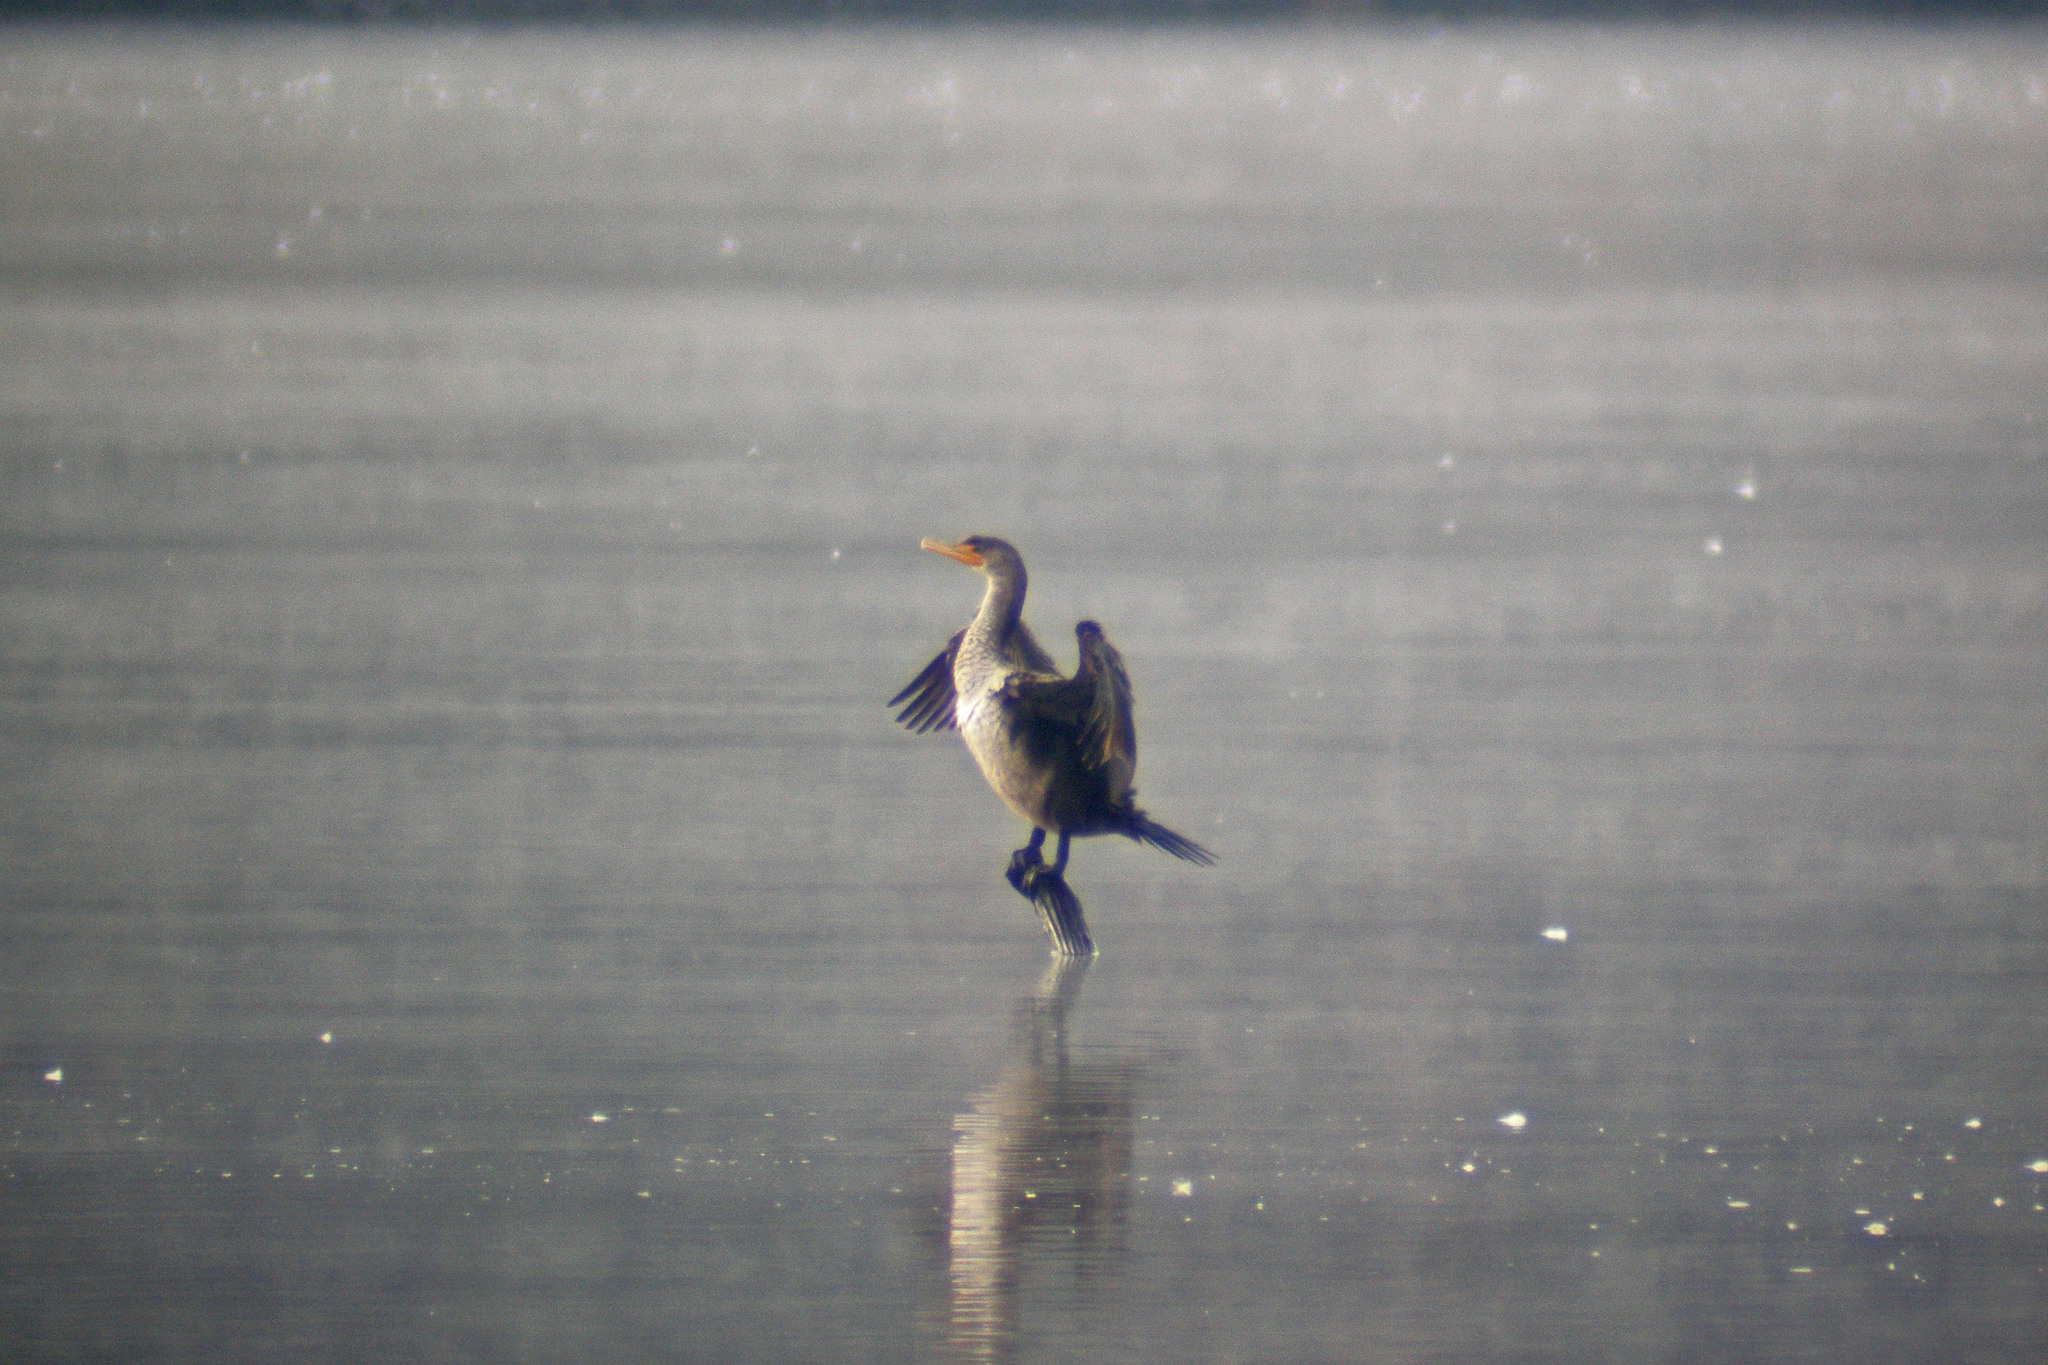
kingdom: Animalia
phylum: Chordata
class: Aves
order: Suliformes
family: Phalacrocoracidae
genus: Phalacrocorax
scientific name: Phalacrocorax auritus
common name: Double-crested cormorant
